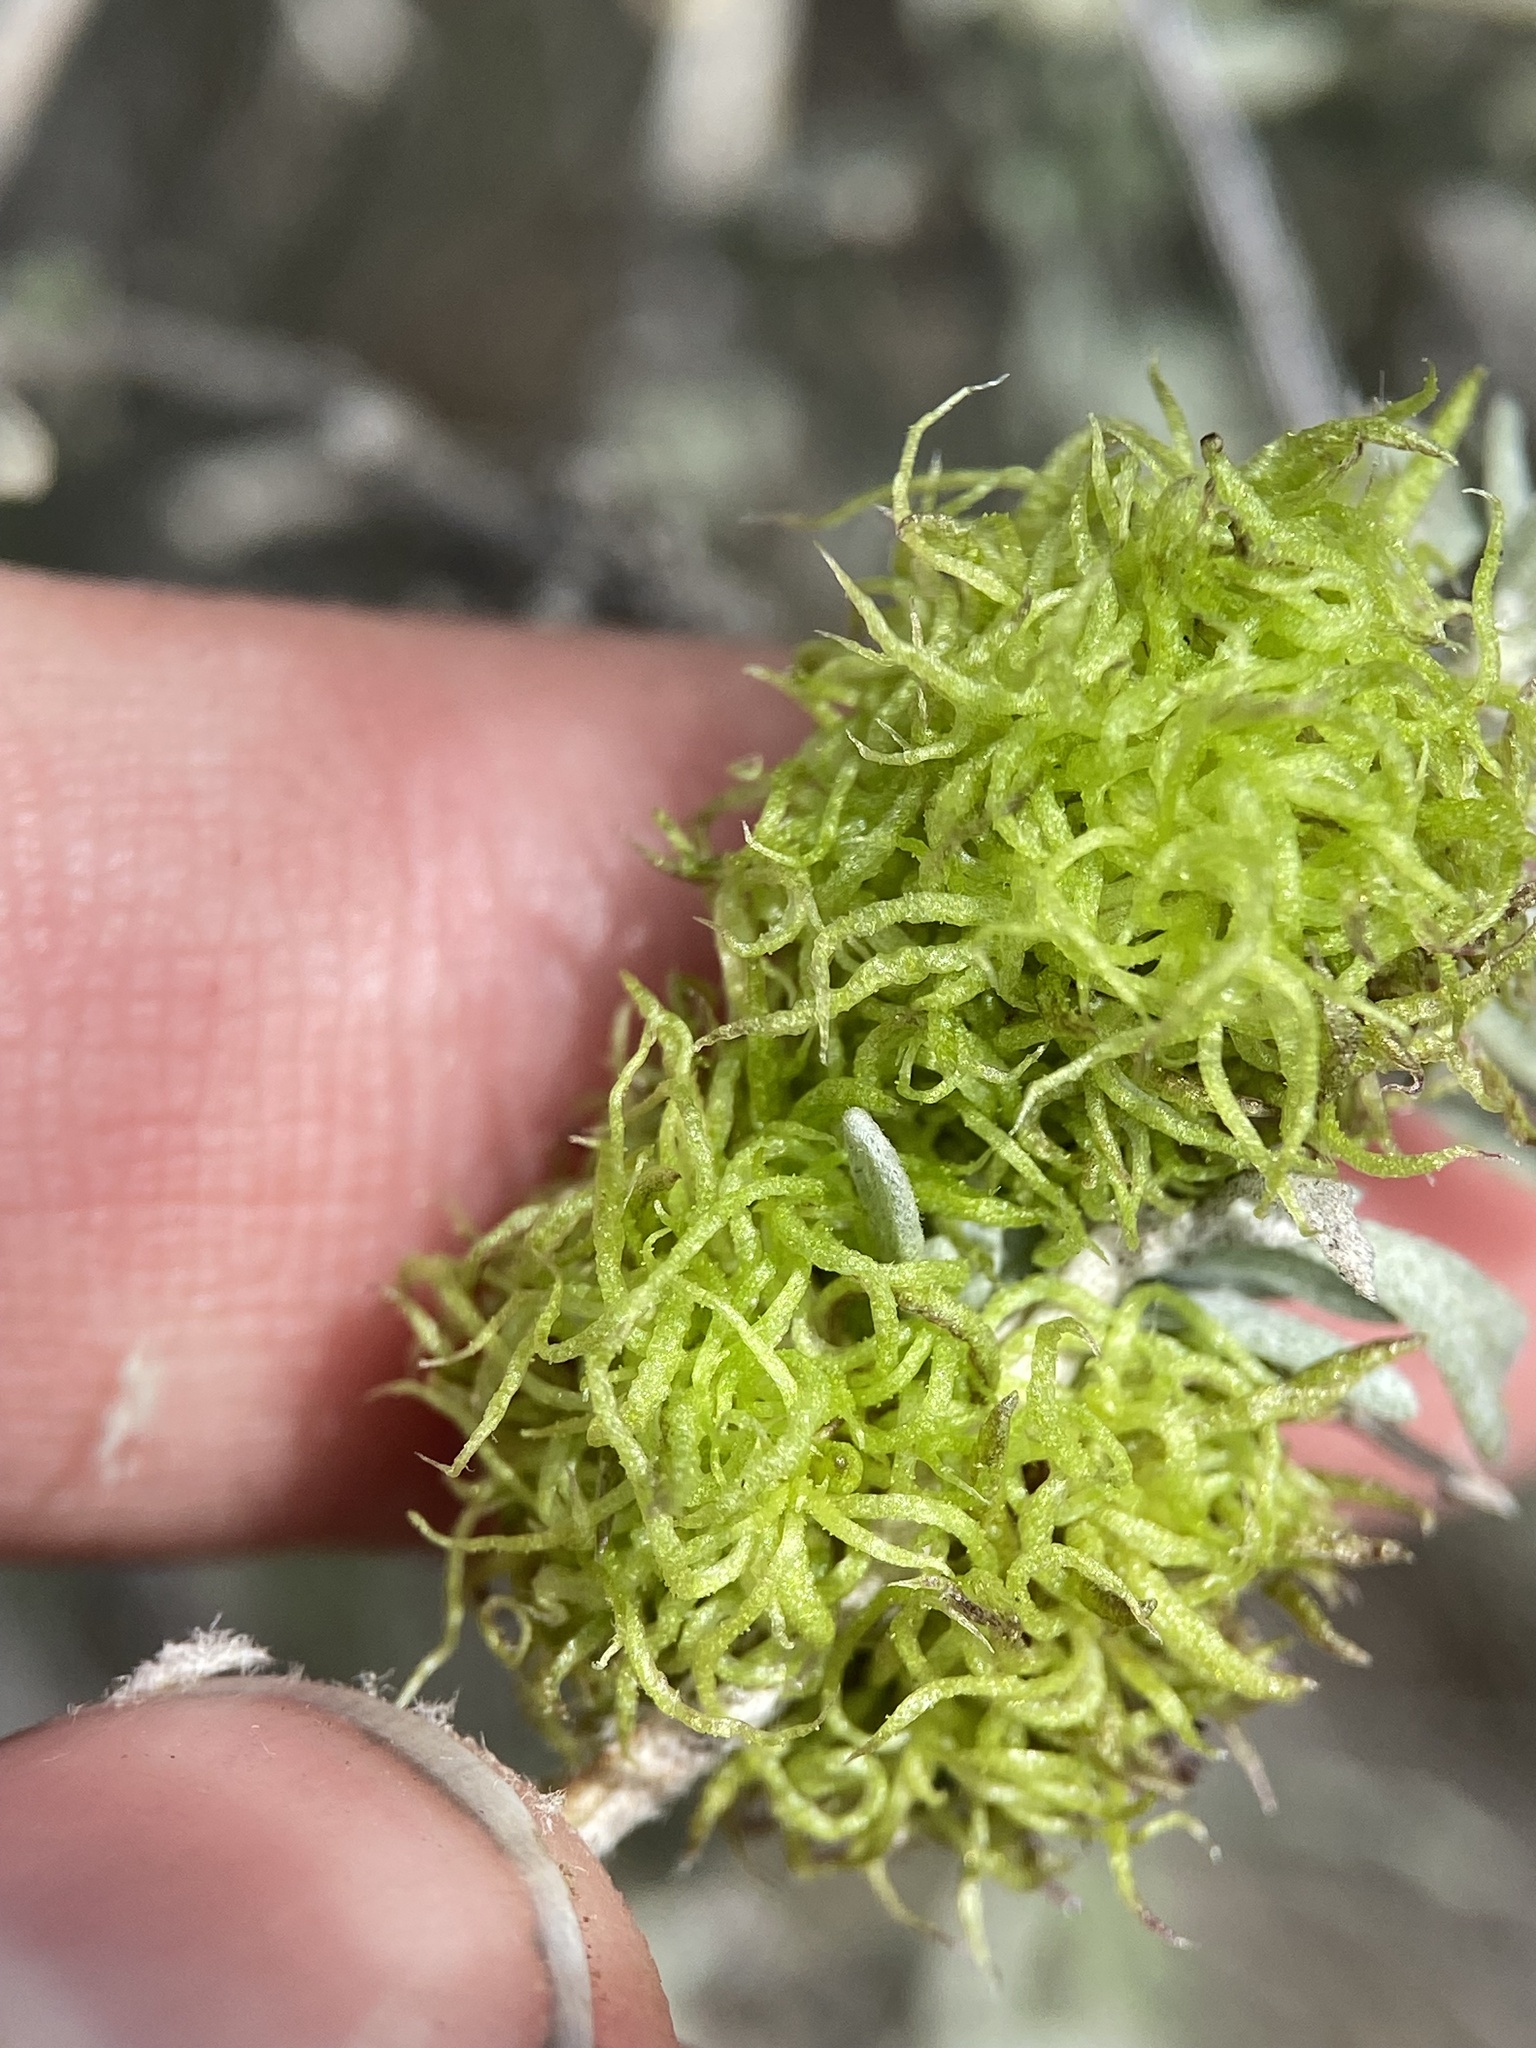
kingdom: Animalia
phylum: Arthropoda
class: Insecta
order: Diptera
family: Cecidomyiidae
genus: Rhopalomyia
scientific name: Rhopalomyia medusa
